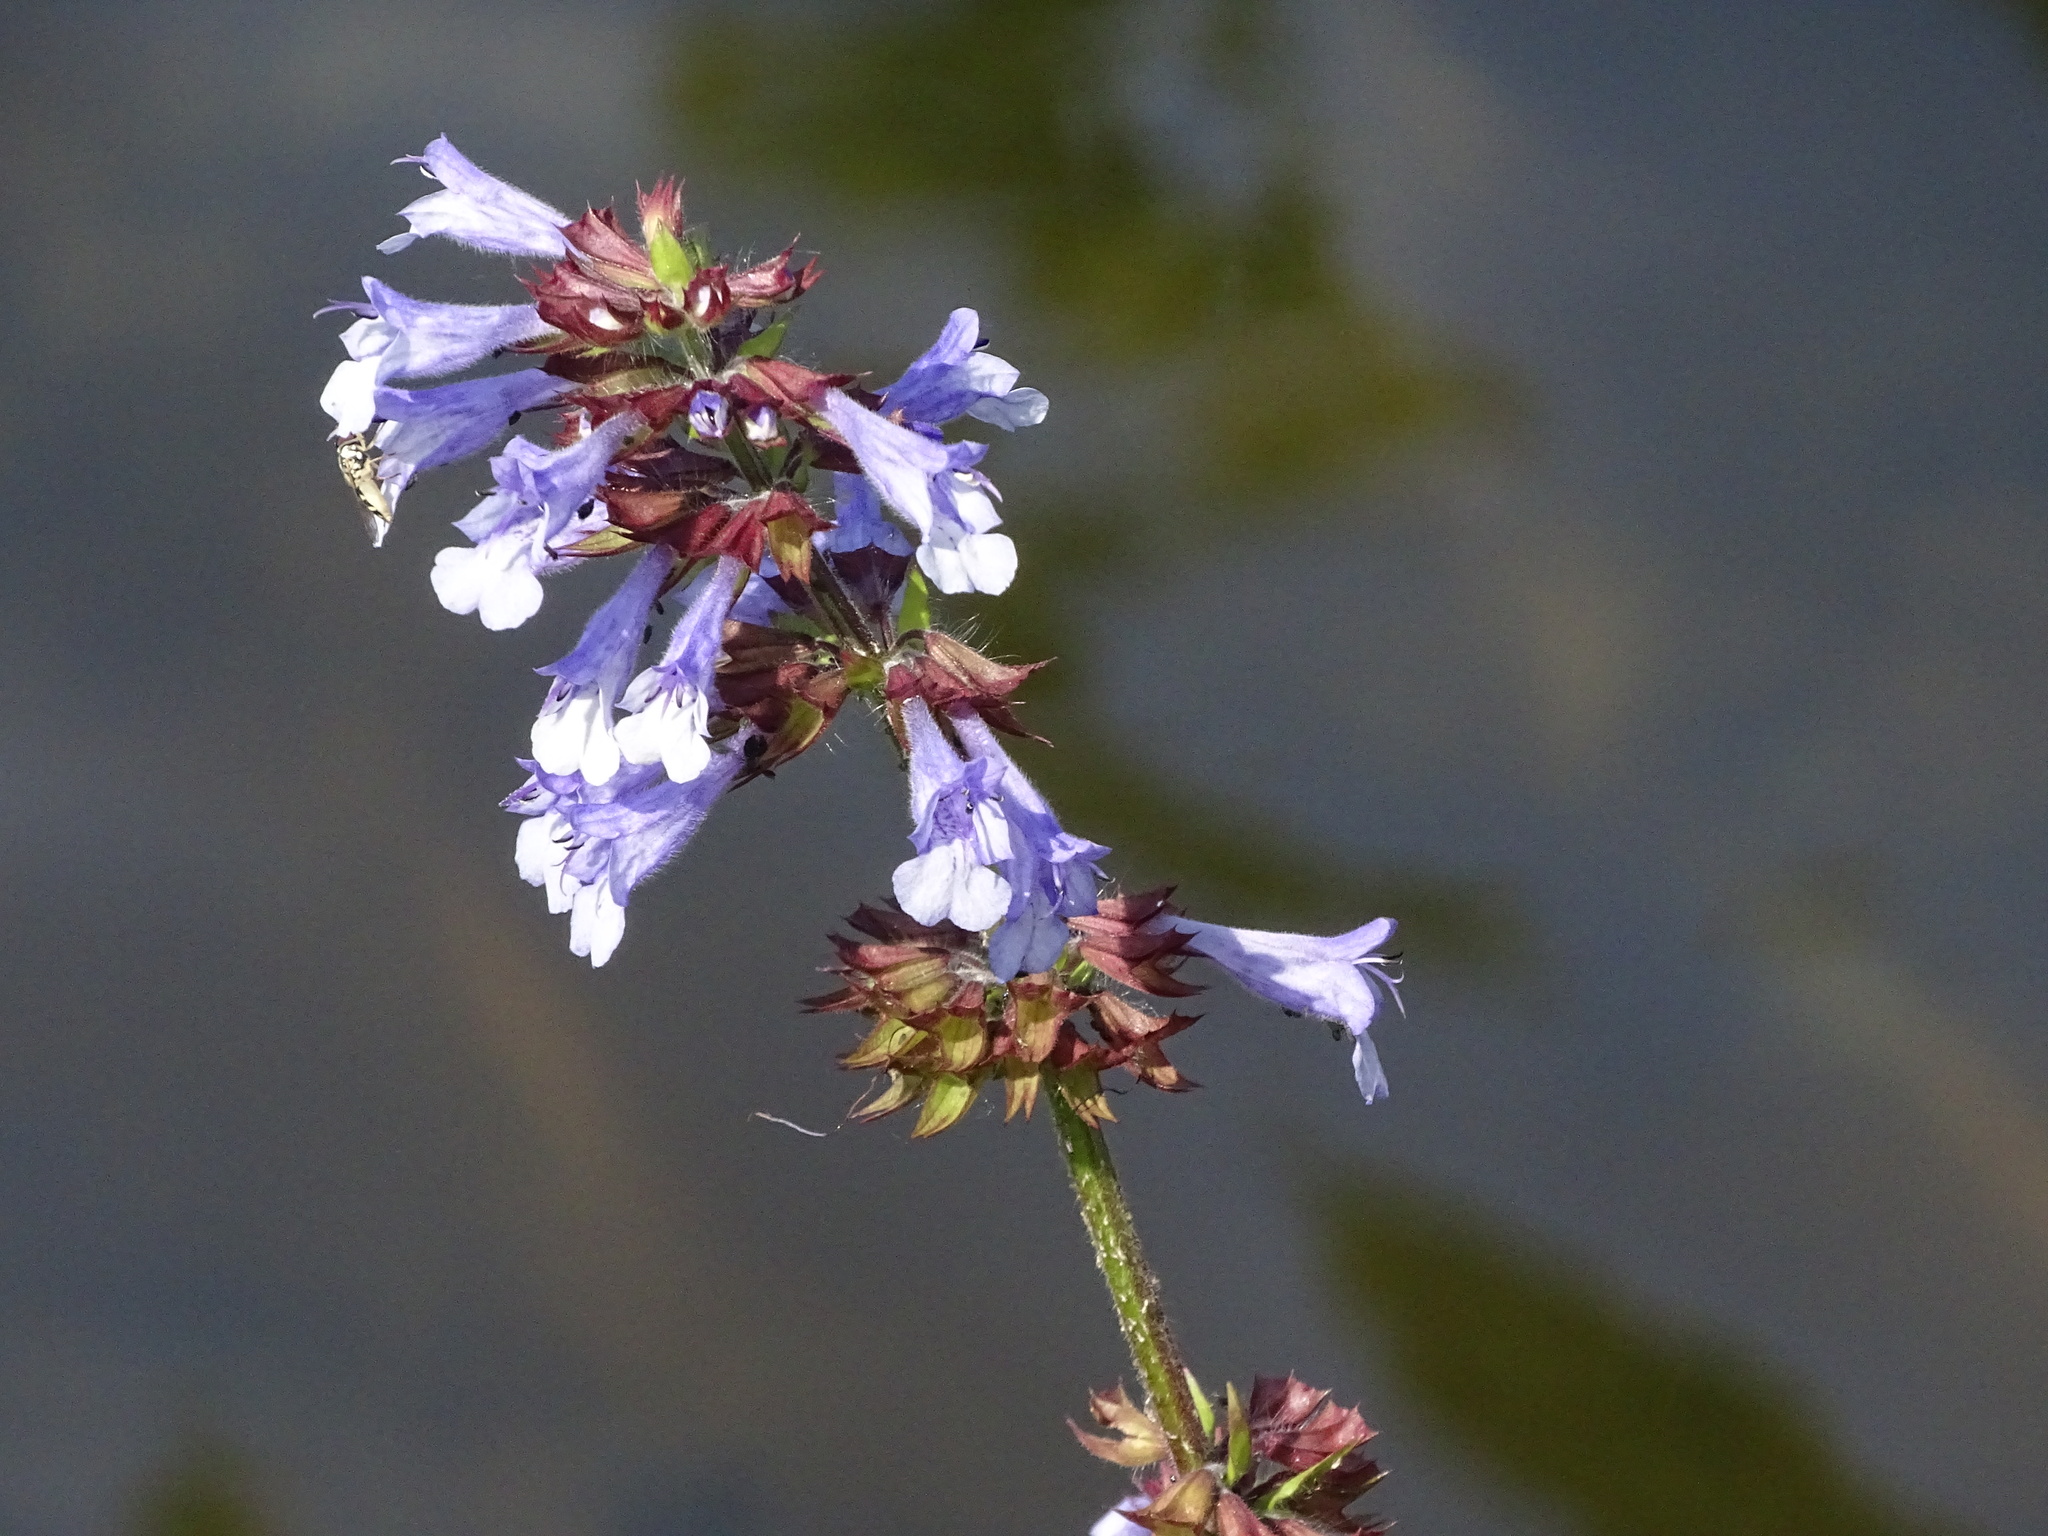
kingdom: Plantae
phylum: Tracheophyta
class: Magnoliopsida
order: Lamiales
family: Lamiaceae
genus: Salvia
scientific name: Salvia lyrata
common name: Cancerweed
